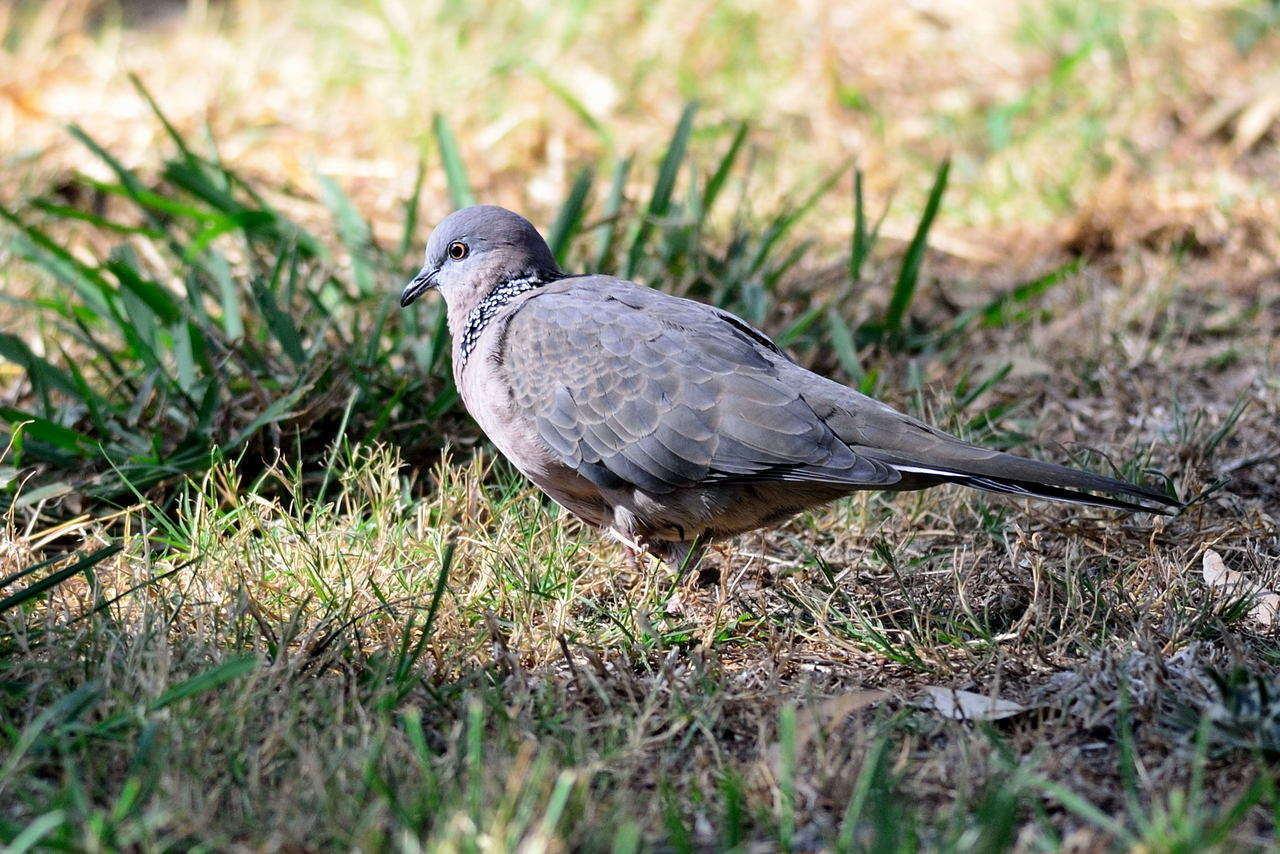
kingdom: Animalia
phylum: Chordata
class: Aves
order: Columbiformes
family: Columbidae
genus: Spilopelia
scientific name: Spilopelia chinensis
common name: Spotted dove
